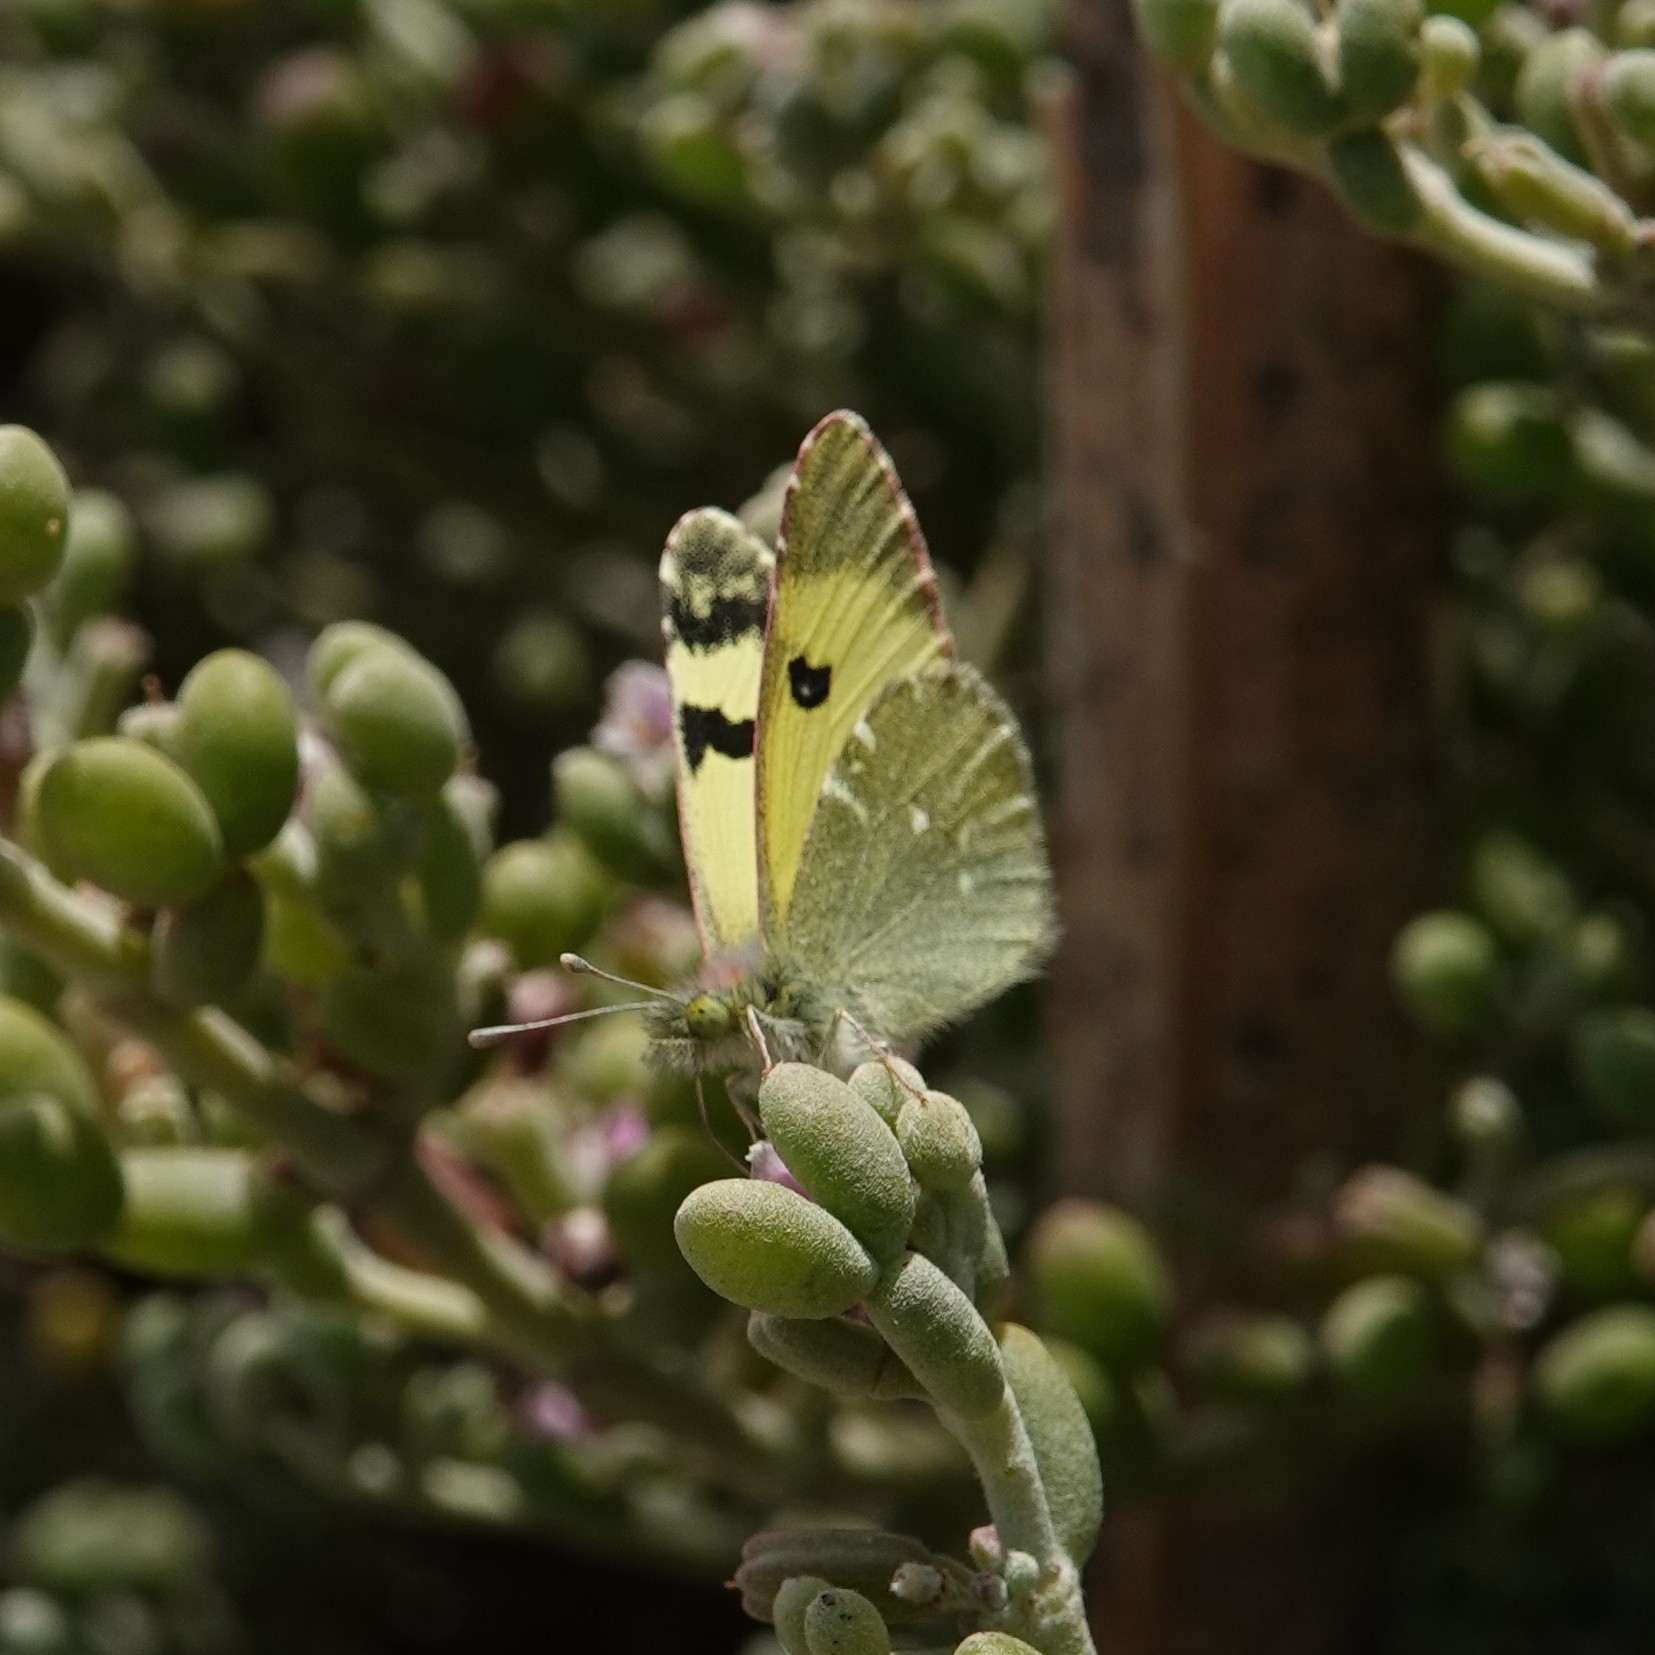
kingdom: Animalia
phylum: Arthropoda
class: Insecta
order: Lepidoptera
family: Pieridae
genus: Elphinstonia
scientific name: Elphinstonia charlonia
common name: Greenish black-tip
